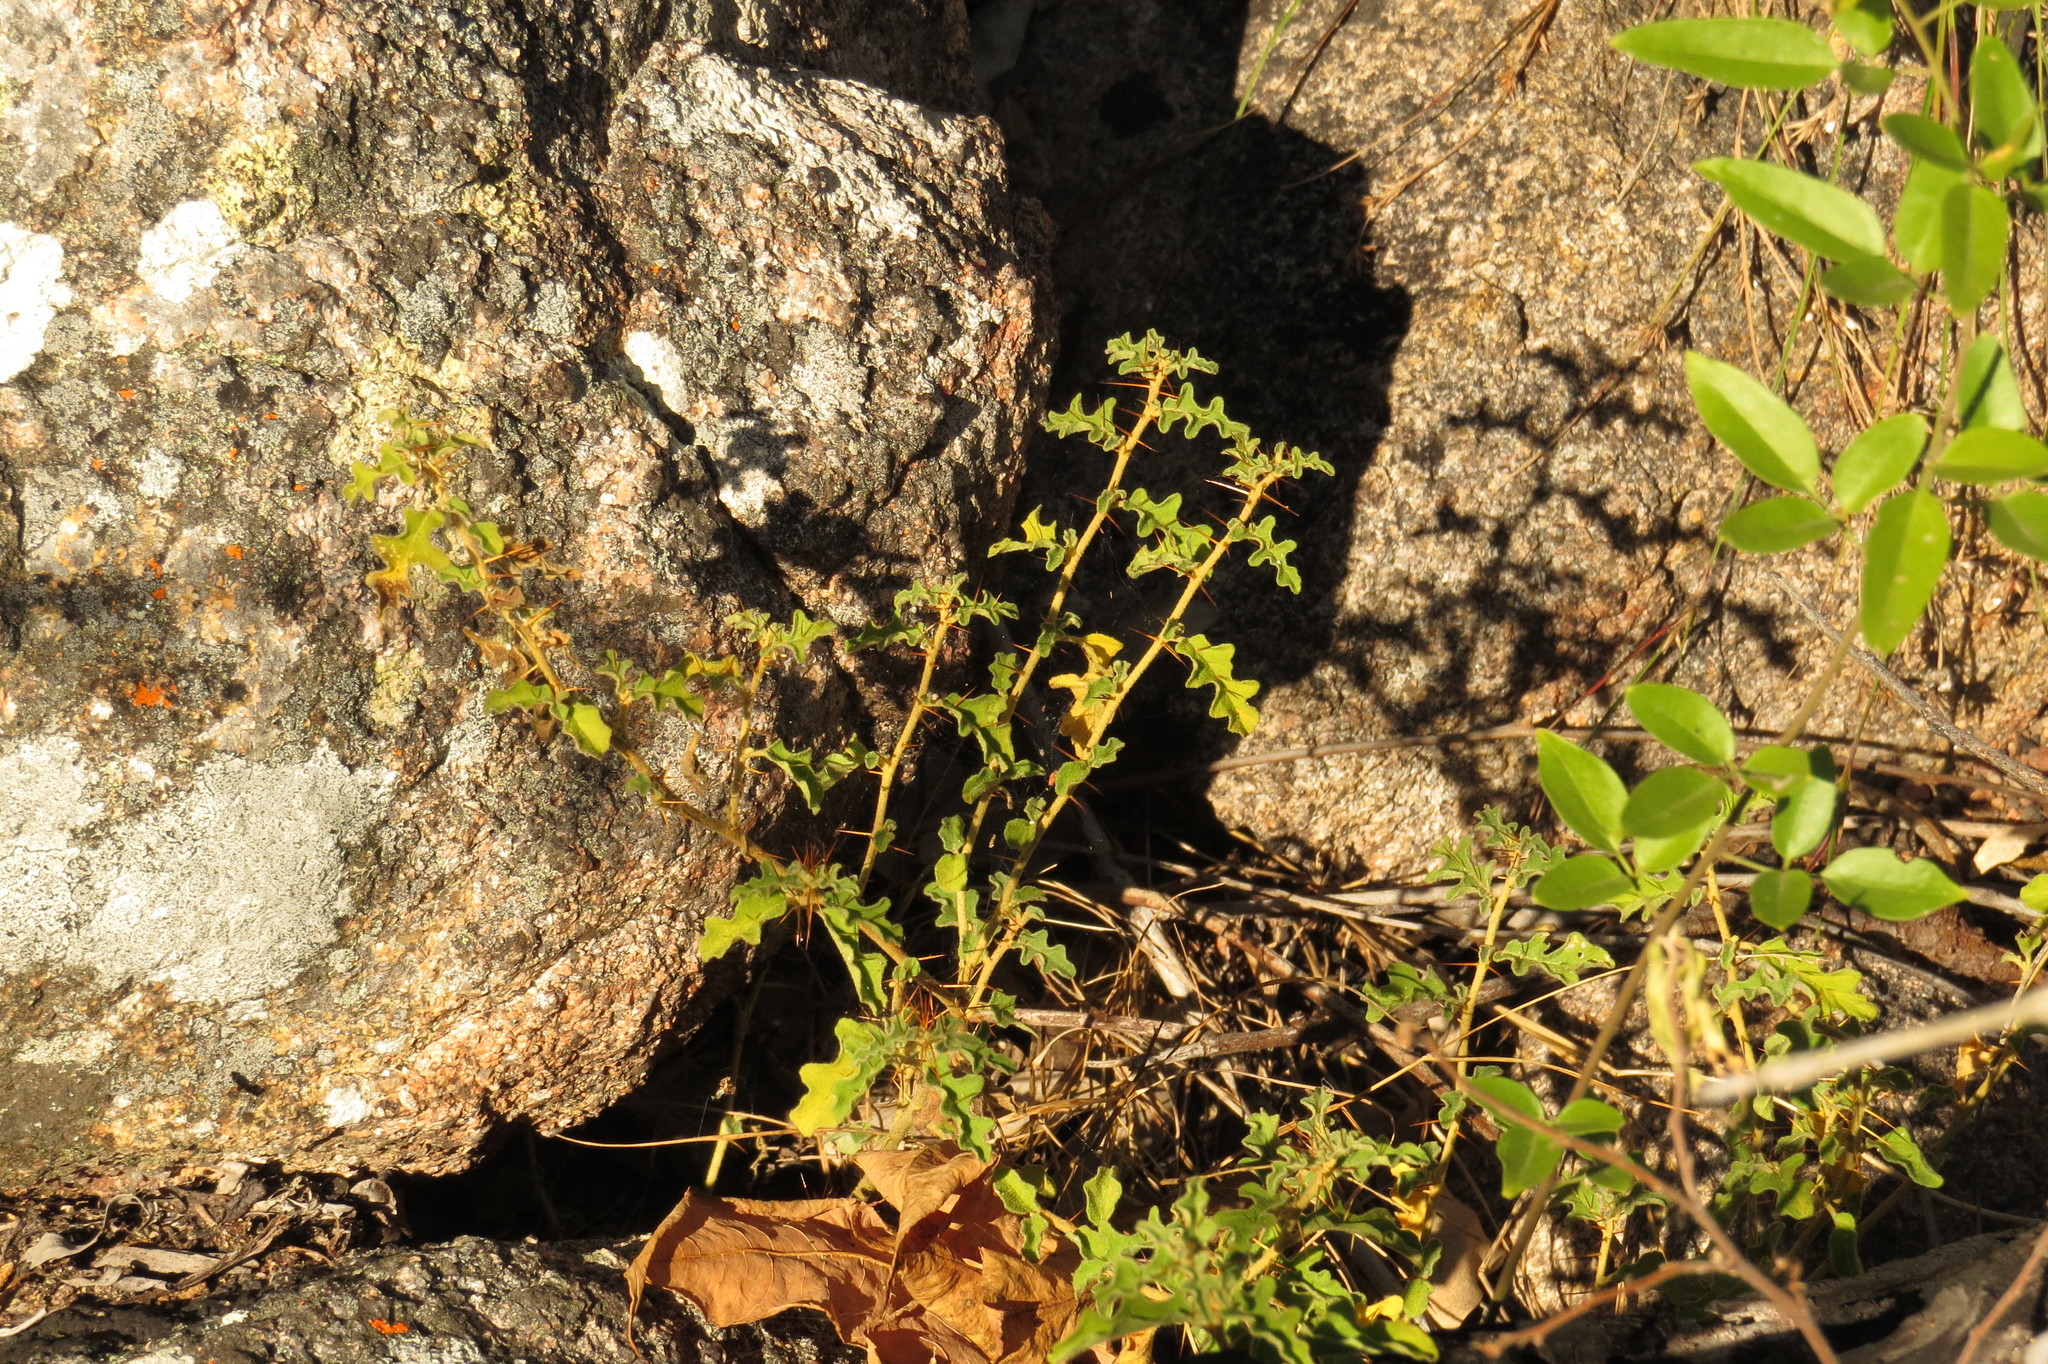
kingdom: Plantae
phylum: Tracheophyta
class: Magnoliopsida
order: Solanales
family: Solanaceae
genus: Solanum
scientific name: Solanum graniticum
